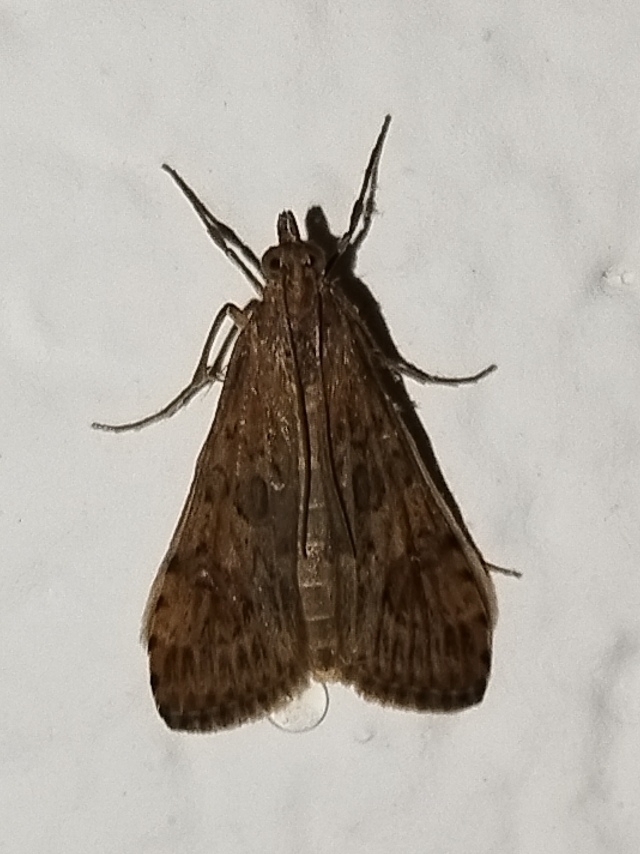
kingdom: Animalia
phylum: Arthropoda
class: Insecta
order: Lepidoptera
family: Crambidae
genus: Nomophila
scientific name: Nomophila noctuella
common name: Rush veneer
